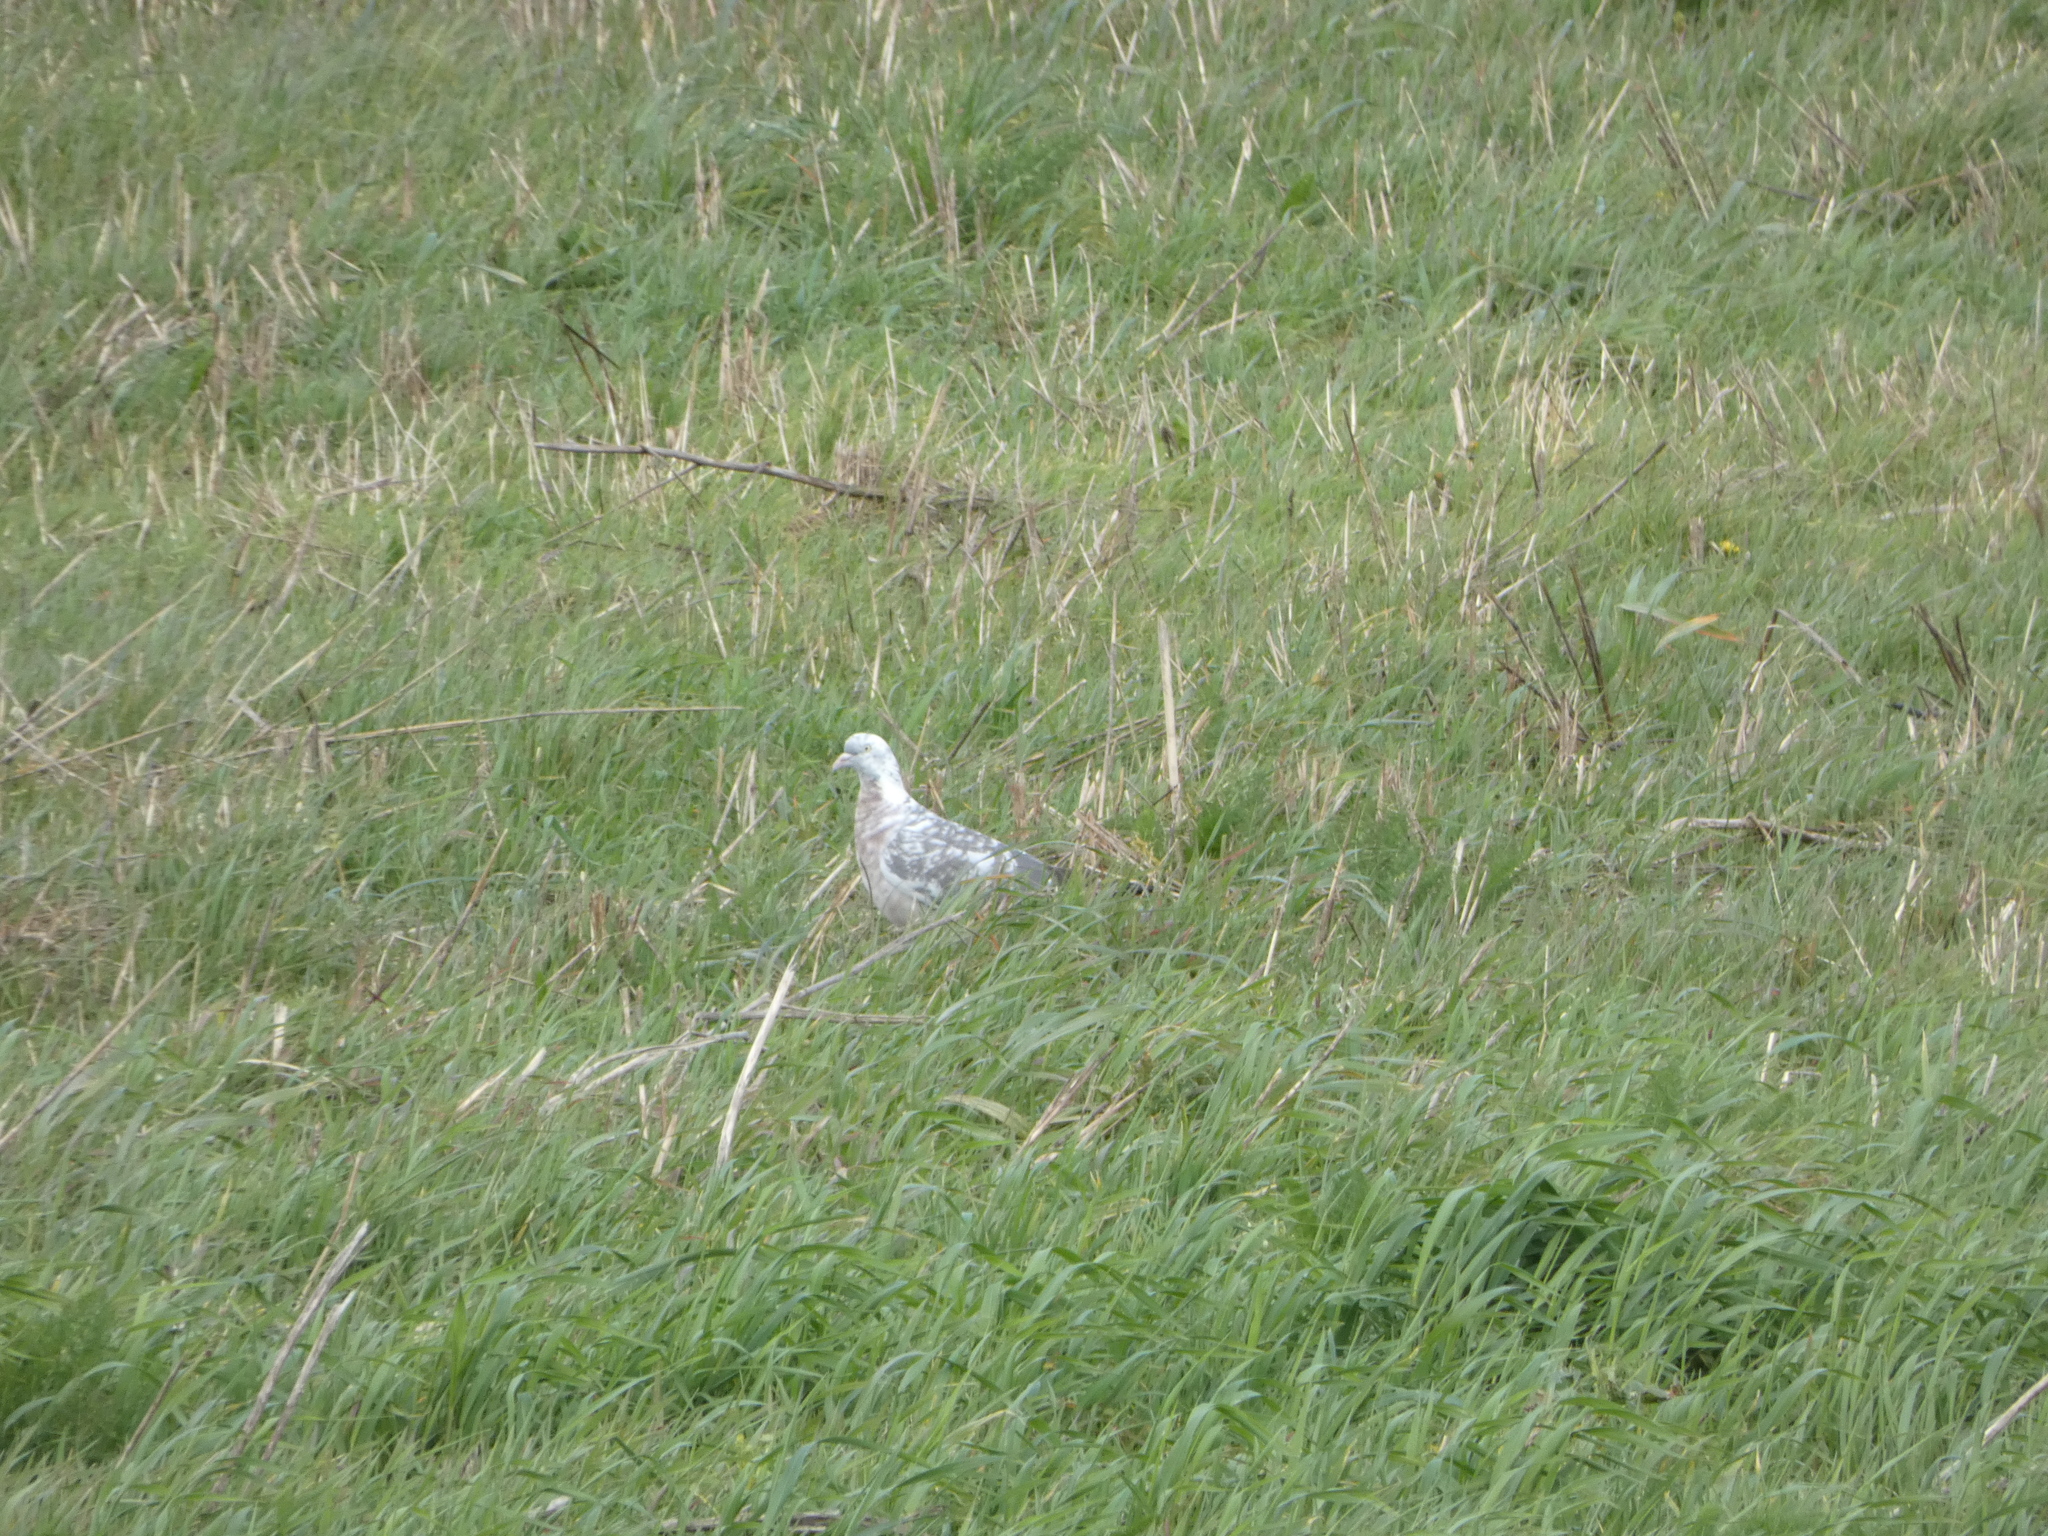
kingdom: Animalia
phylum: Chordata
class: Aves
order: Columbiformes
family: Columbidae
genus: Columba
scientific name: Columba livia
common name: Rock pigeon
